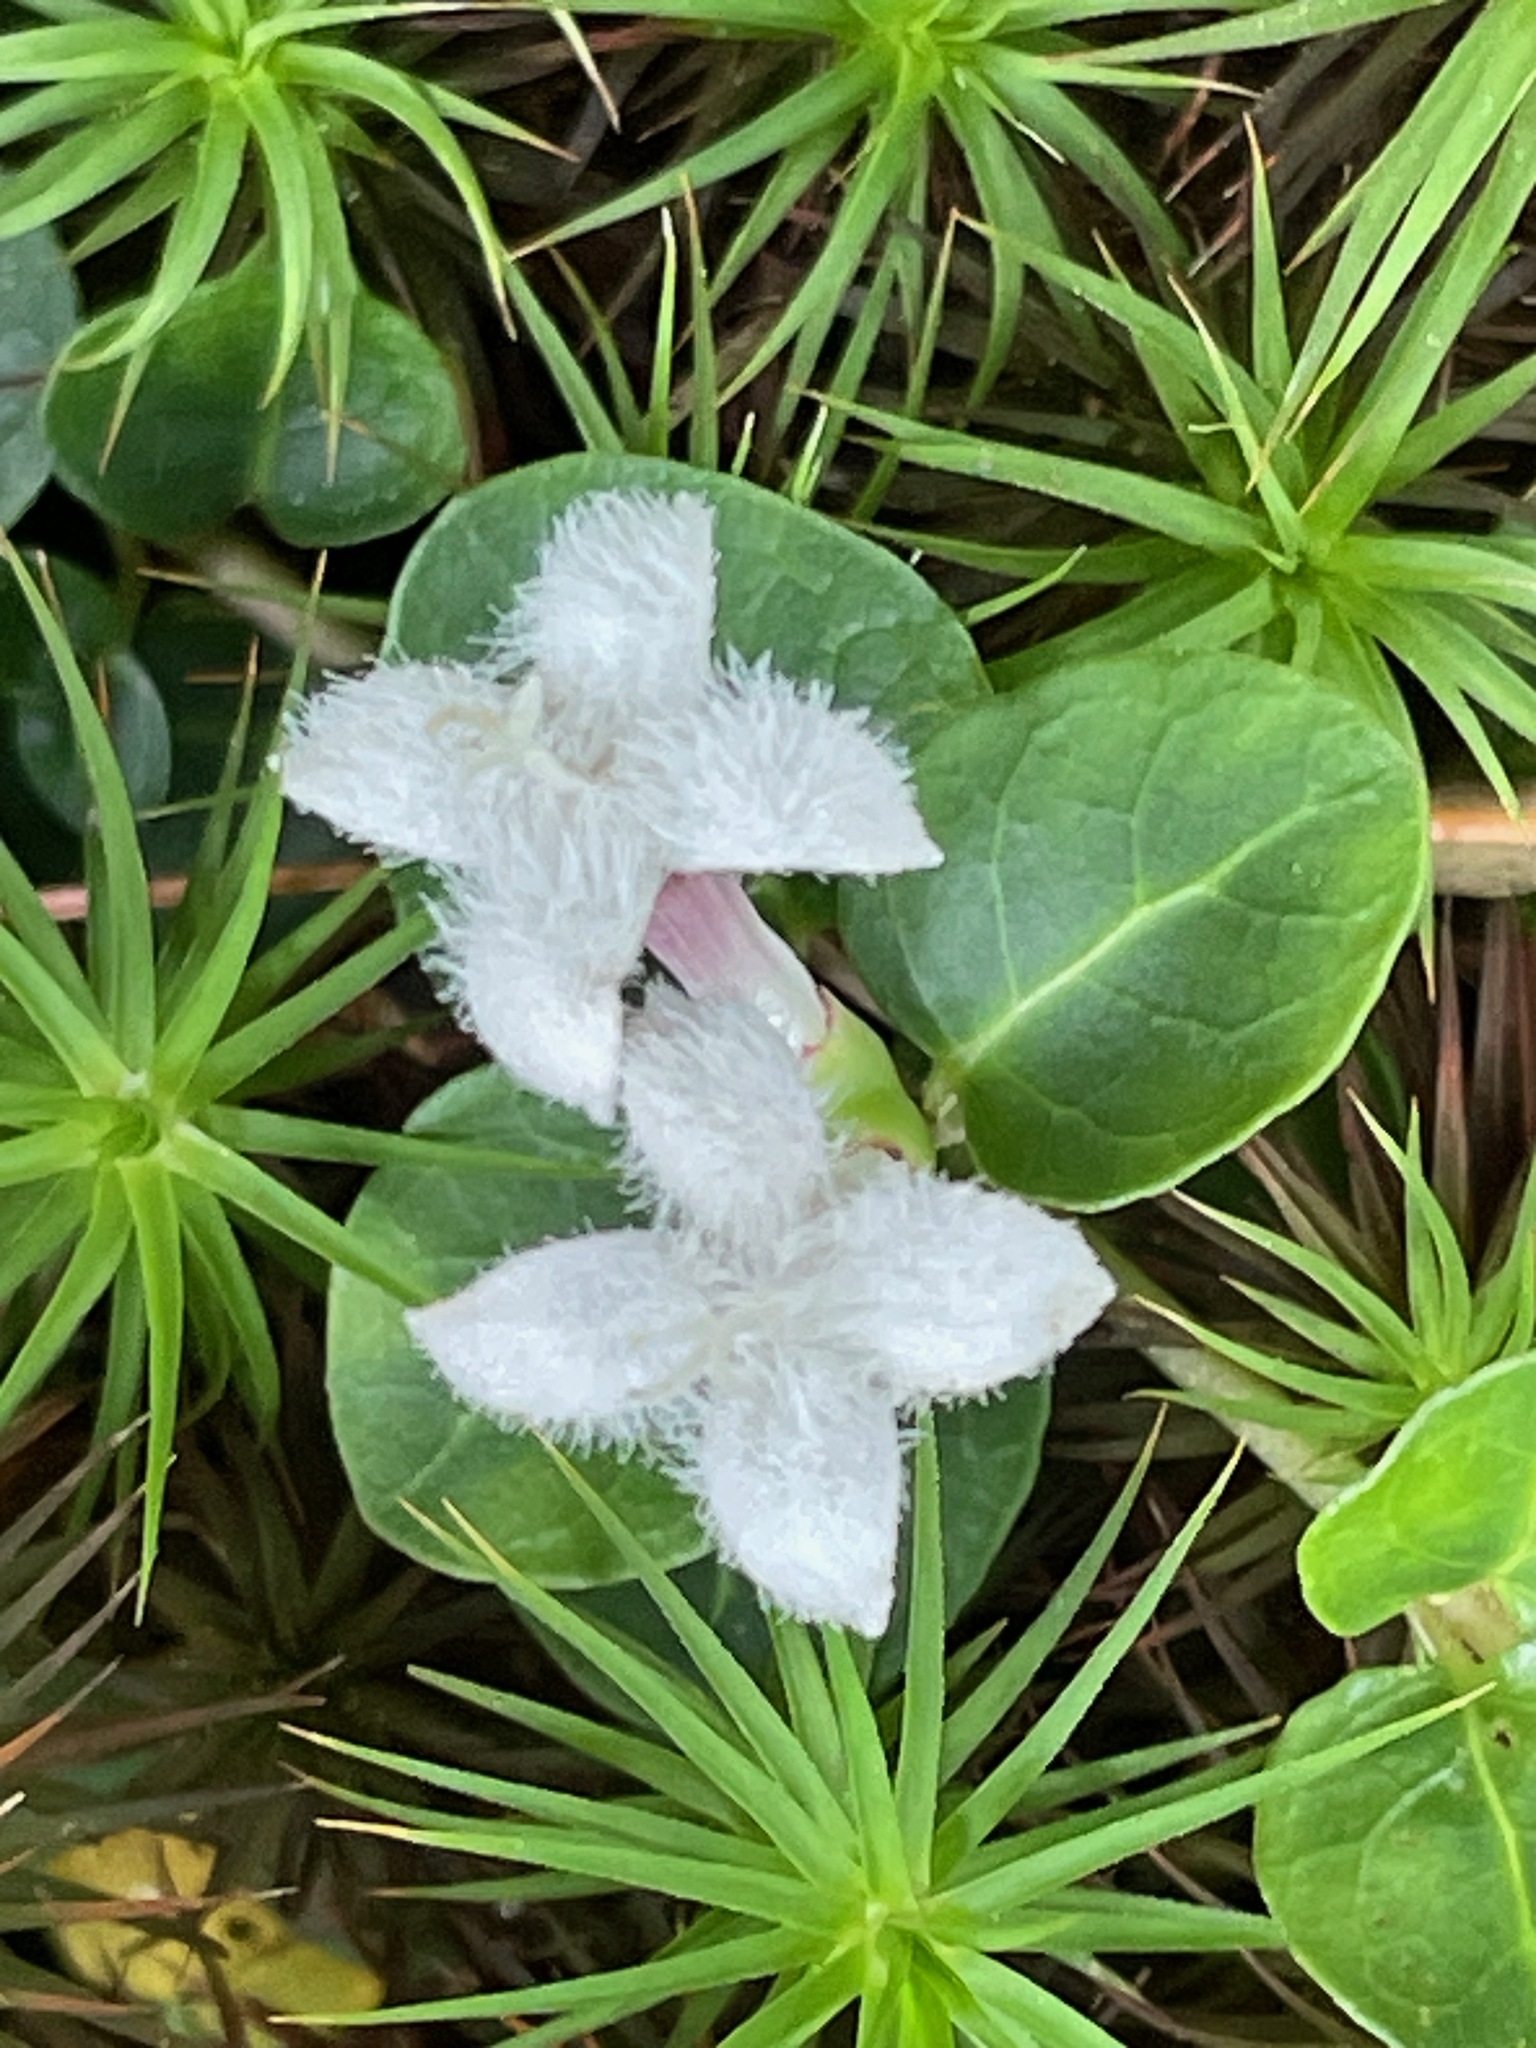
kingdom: Plantae
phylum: Tracheophyta
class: Magnoliopsida
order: Gentianales
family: Rubiaceae
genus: Mitchella
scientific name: Mitchella repens
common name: Partridge-berry
